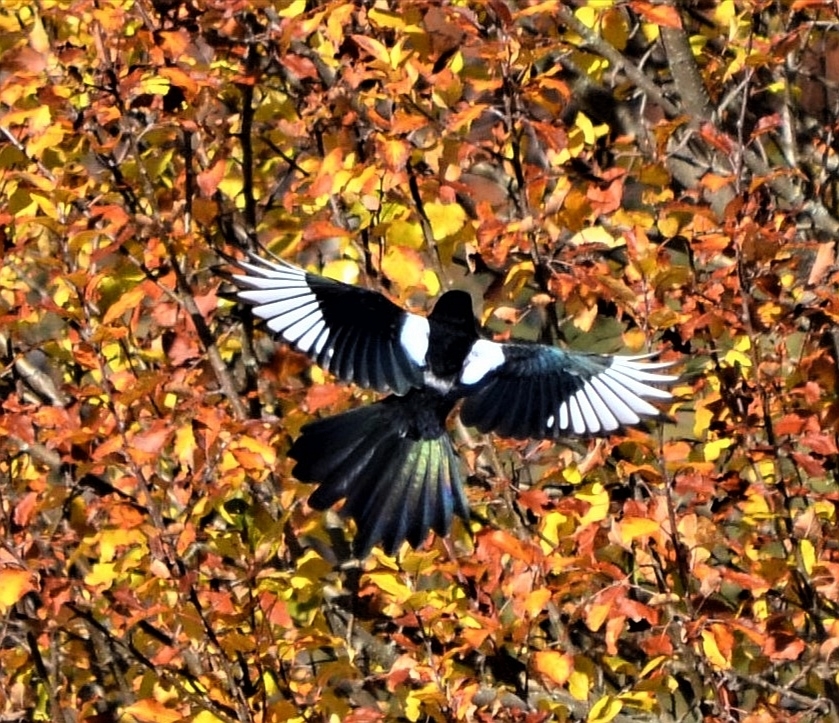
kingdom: Animalia
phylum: Chordata
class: Aves
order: Passeriformes
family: Corvidae
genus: Pica
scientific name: Pica pica
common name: Eurasian magpie
